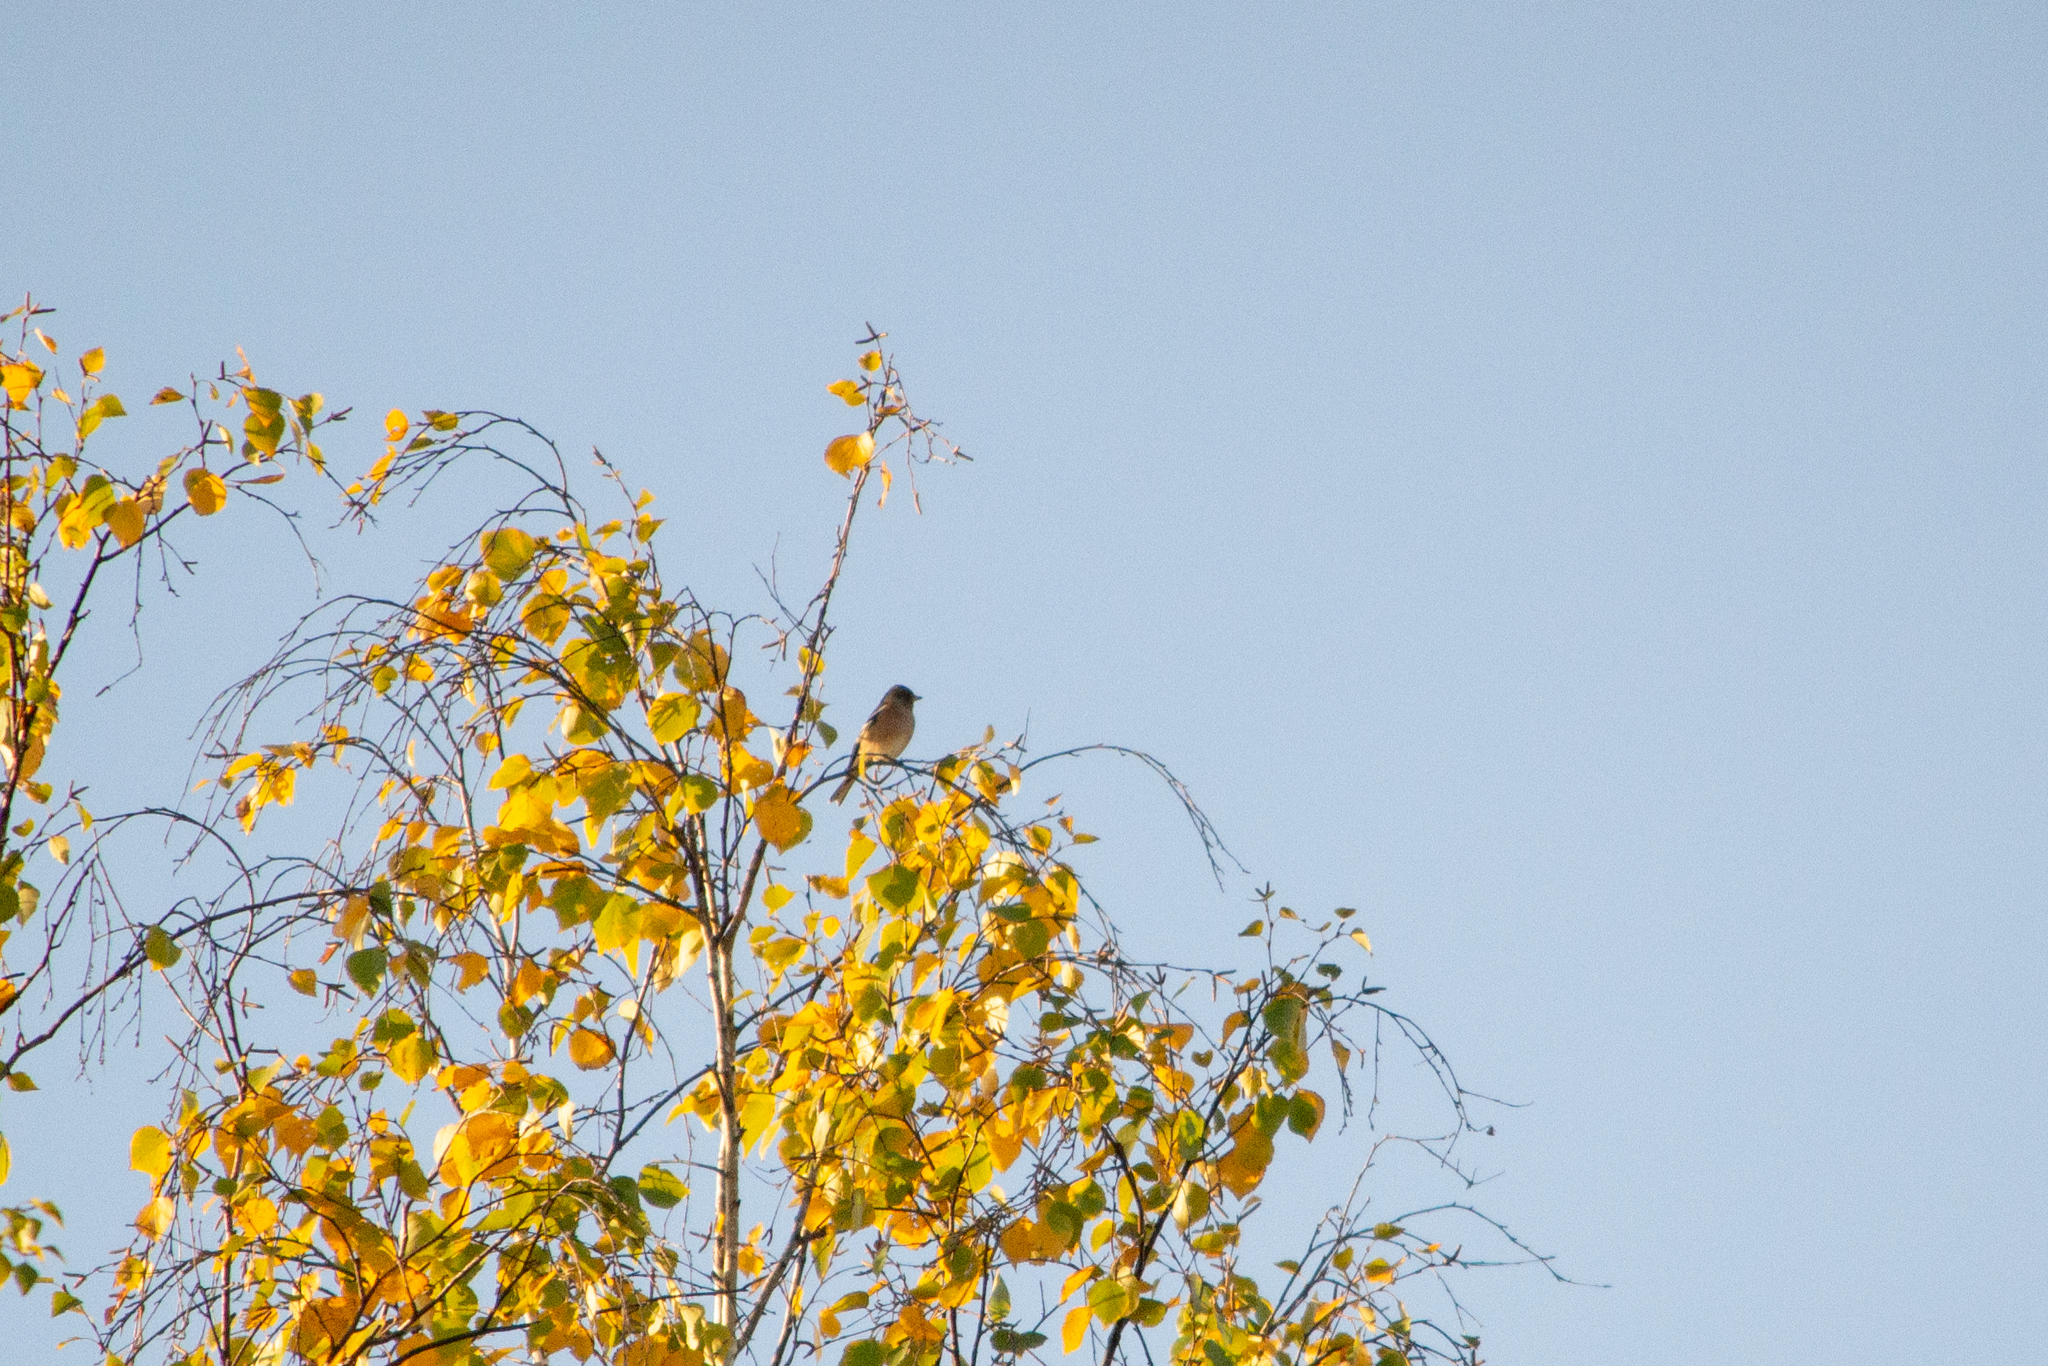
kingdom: Animalia
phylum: Chordata
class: Aves
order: Passeriformes
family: Fringillidae
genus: Fringilla
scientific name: Fringilla coelebs
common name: Common chaffinch
